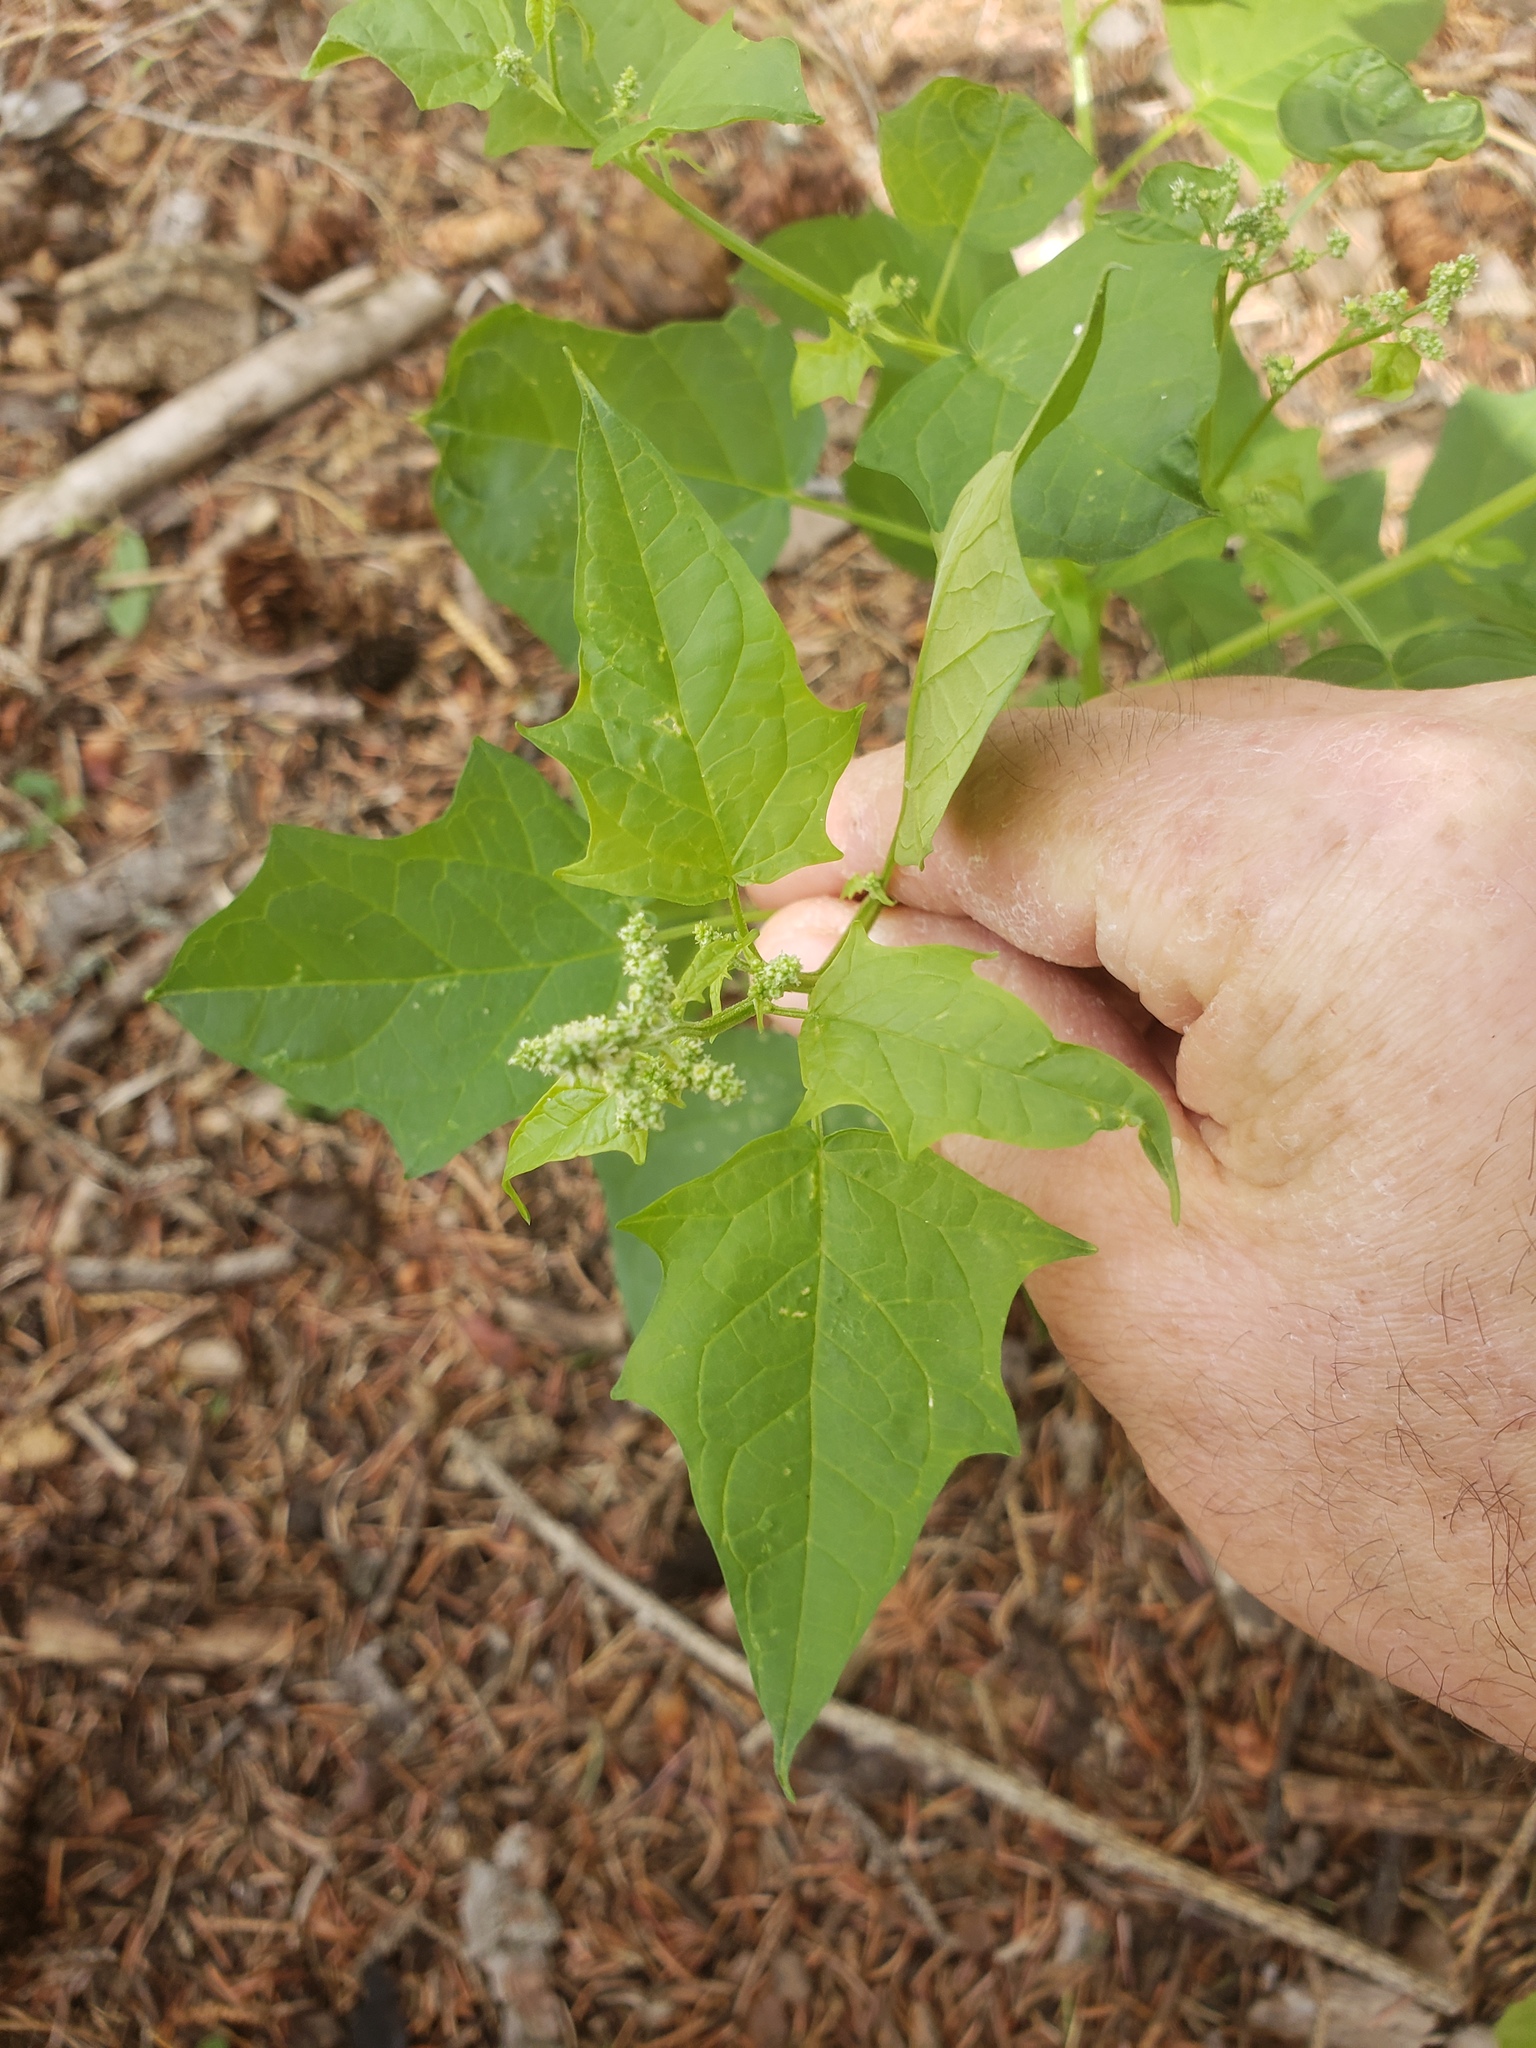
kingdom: Plantae
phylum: Tracheophyta
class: Magnoliopsida
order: Caryophyllales
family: Amaranthaceae
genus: Chenopodiastrum
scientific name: Chenopodiastrum simplex
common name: Large-seed goosefoot
